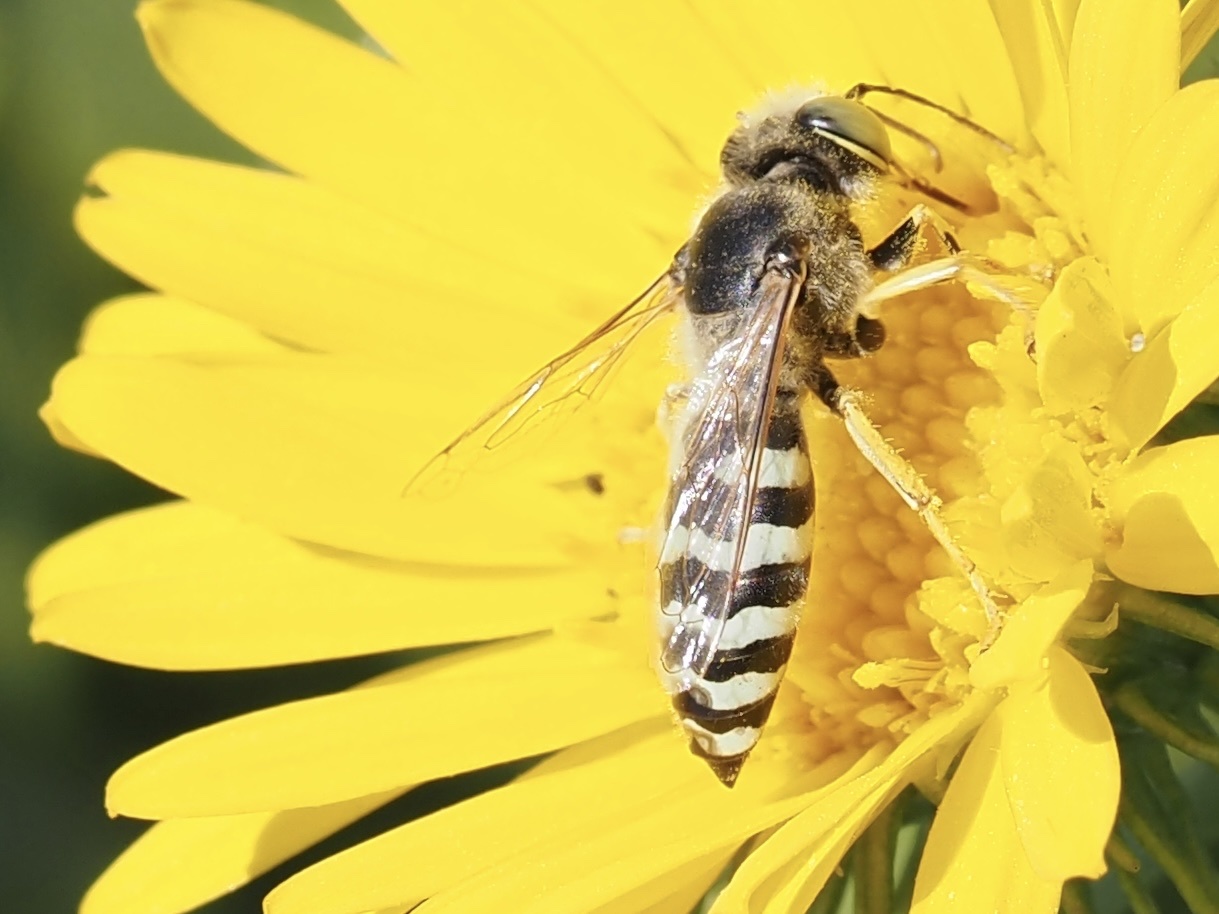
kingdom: Animalia
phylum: Arthropoda
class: Insecta
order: Hymenoptera
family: Crabronidae
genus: Bembix
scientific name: Bembix americana
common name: American sand wasp
